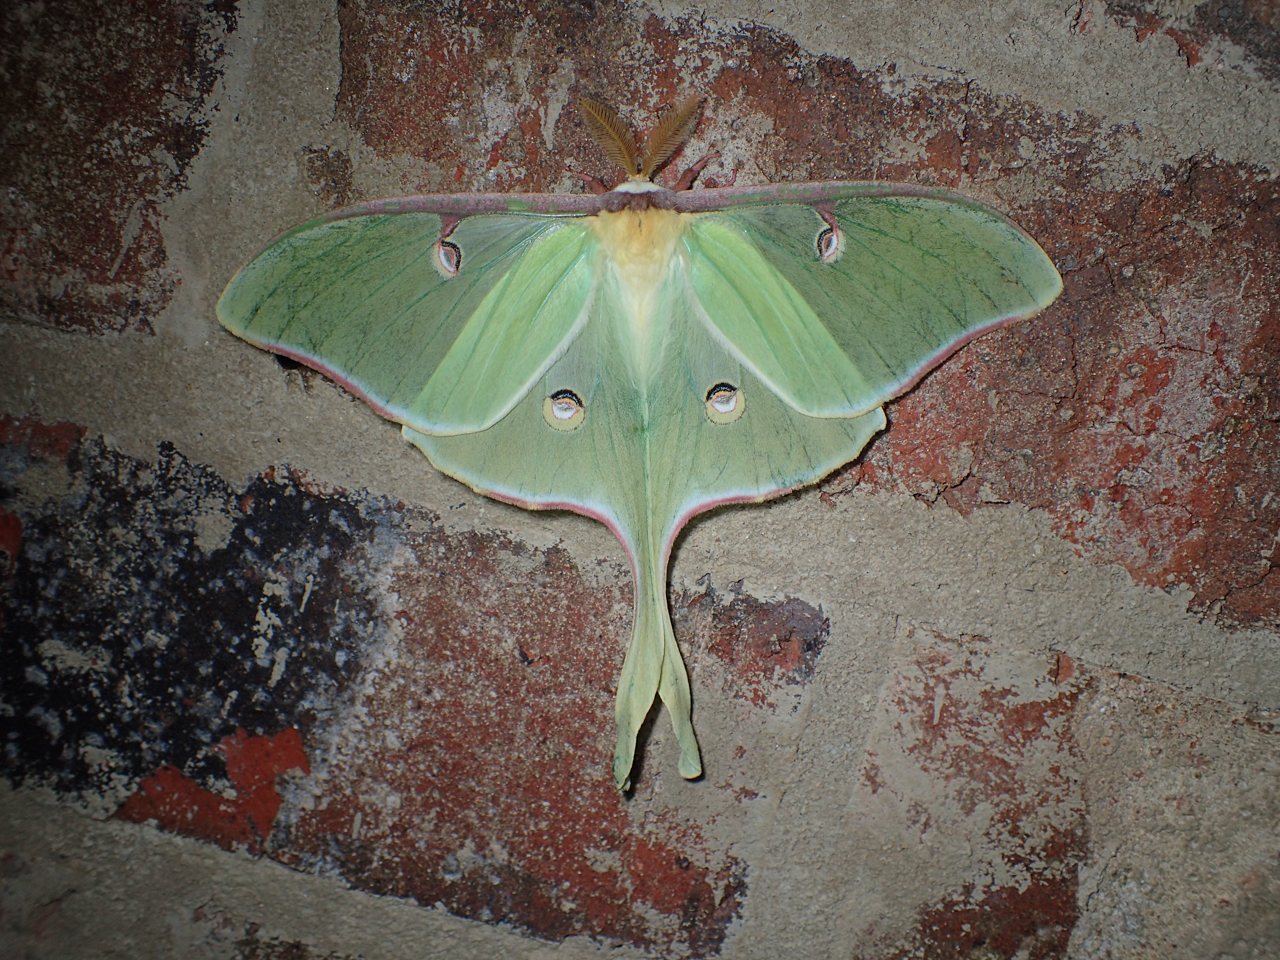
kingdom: Animalia
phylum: Arthropoda
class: Insecta
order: Lepidoptera
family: Saturniidae
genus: Actias
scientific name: Actias luna
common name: Luna moth
